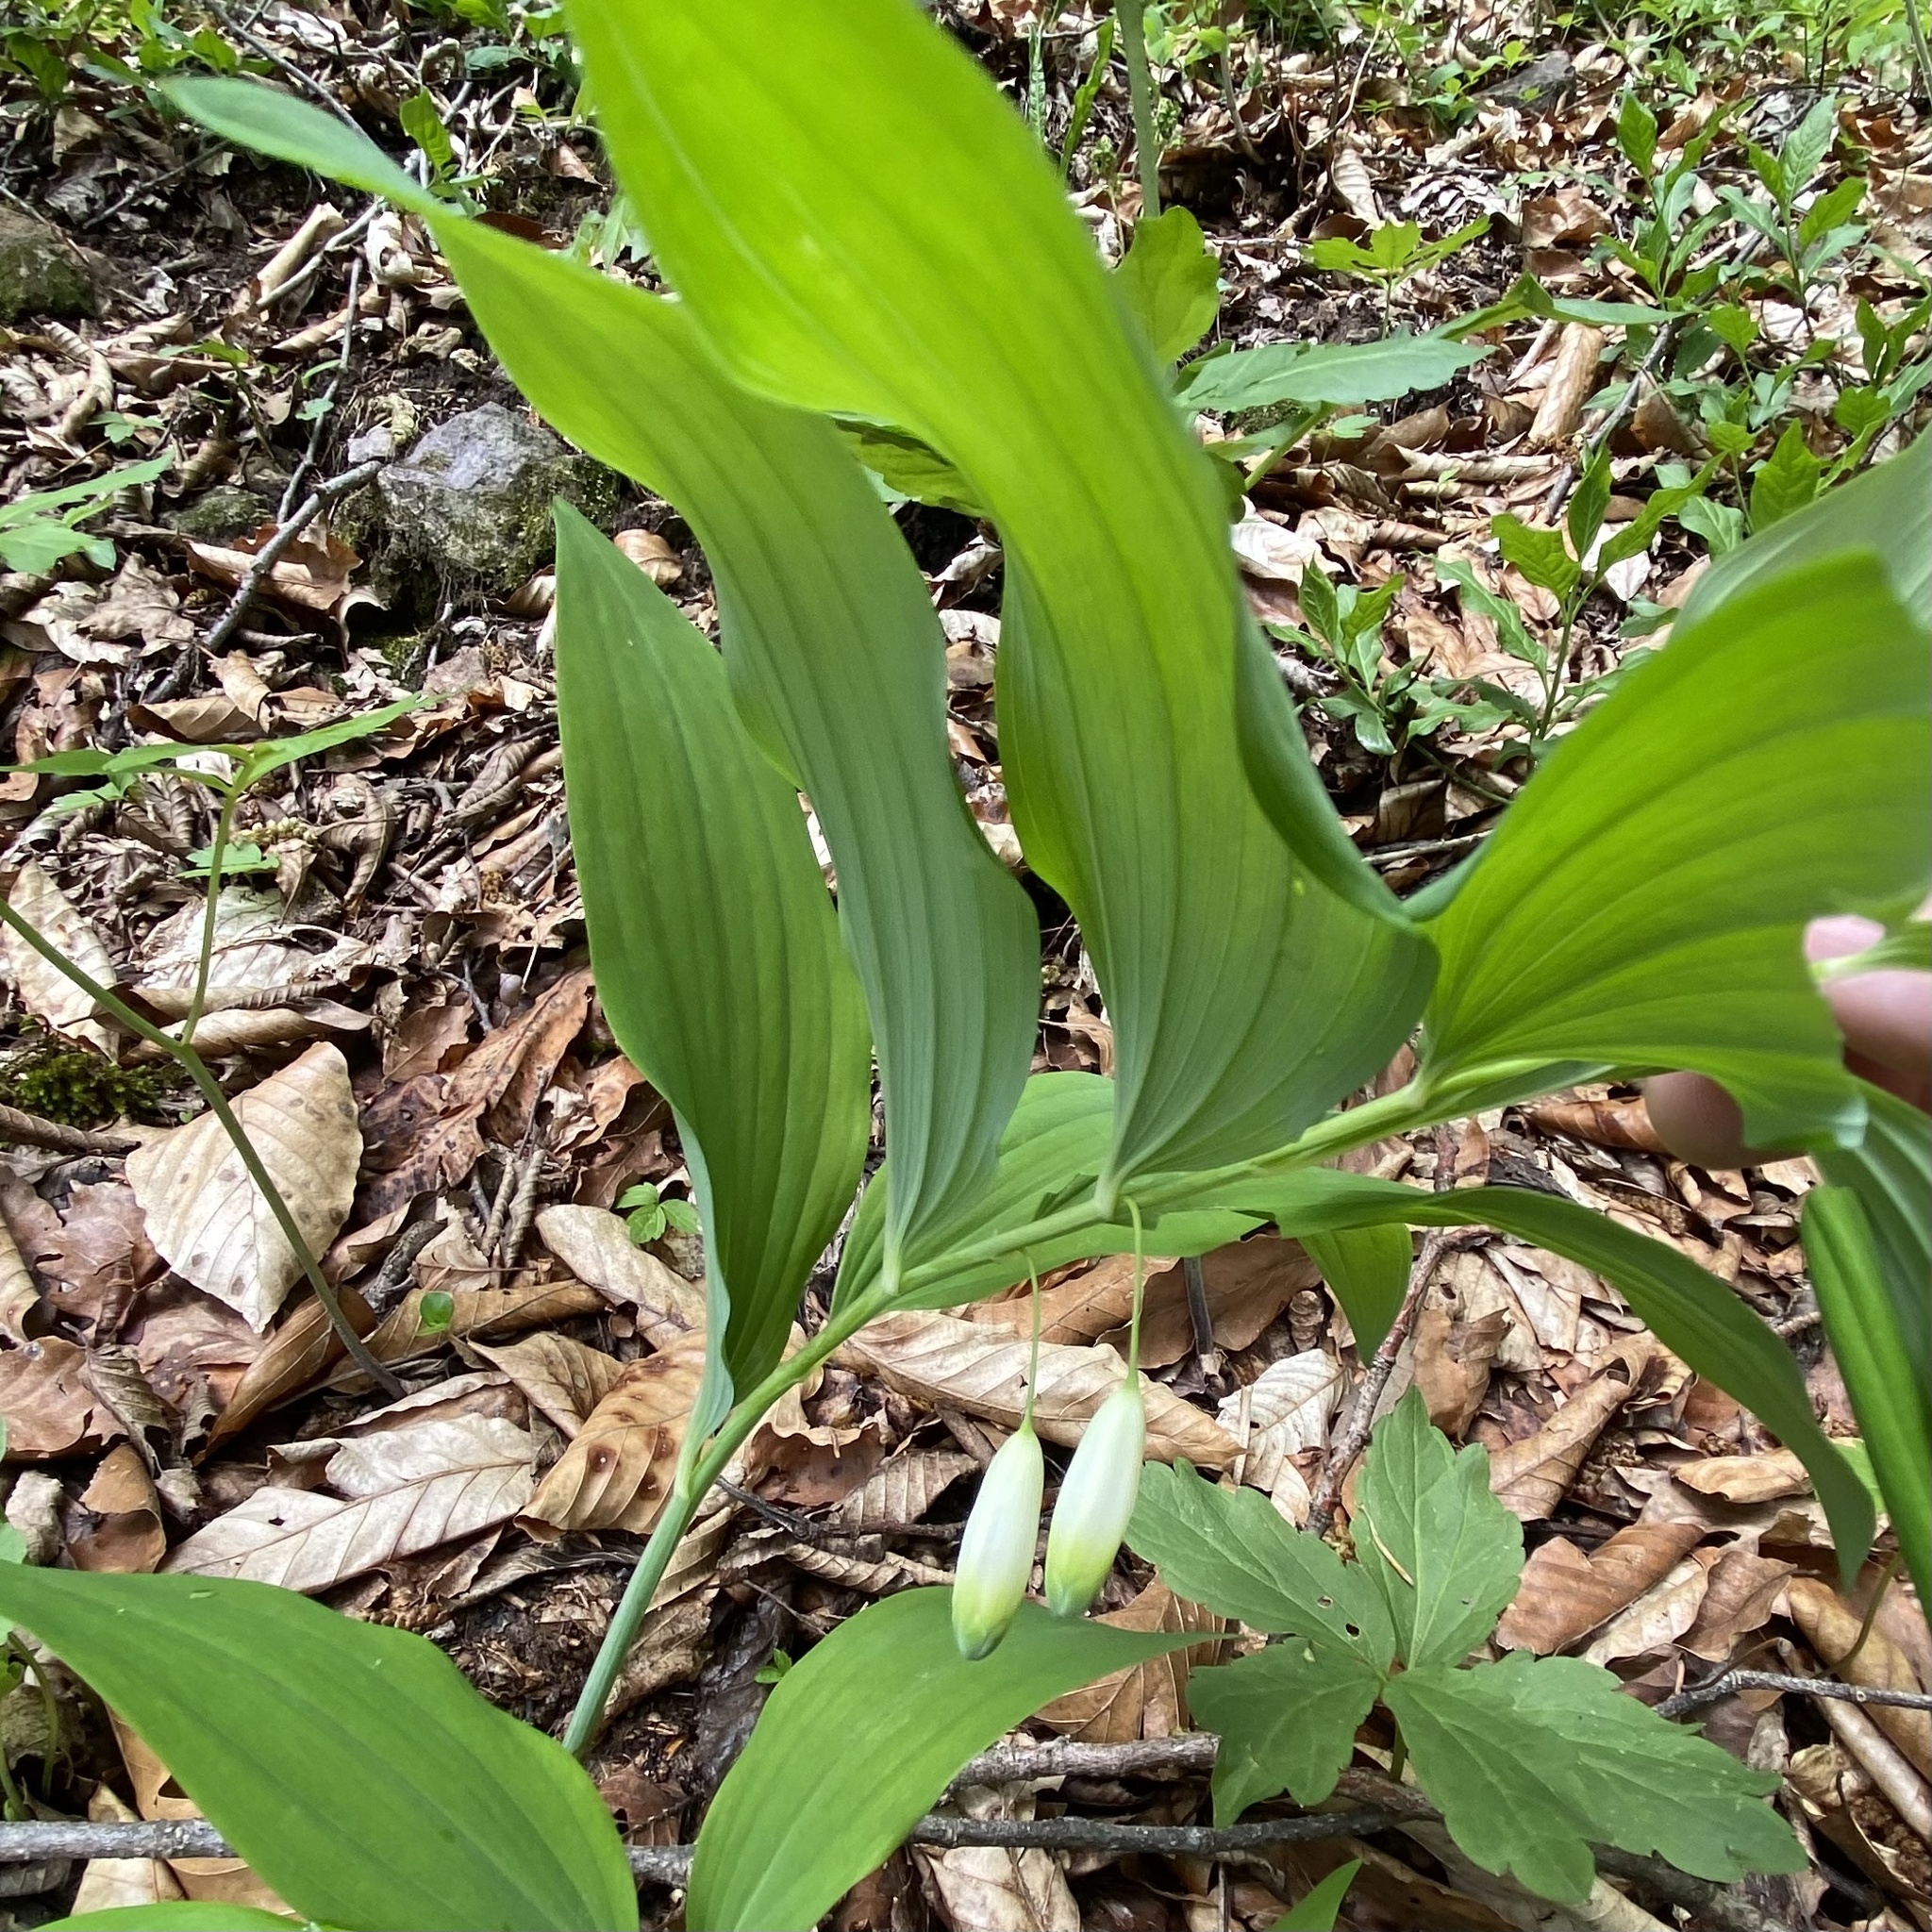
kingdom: Plantae
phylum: Tracheophyta
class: Liliopsida
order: Asparagales
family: Asparagaceae
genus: Polygonatum
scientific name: Polygonatum odoratum
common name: Angular solomon's-seal
